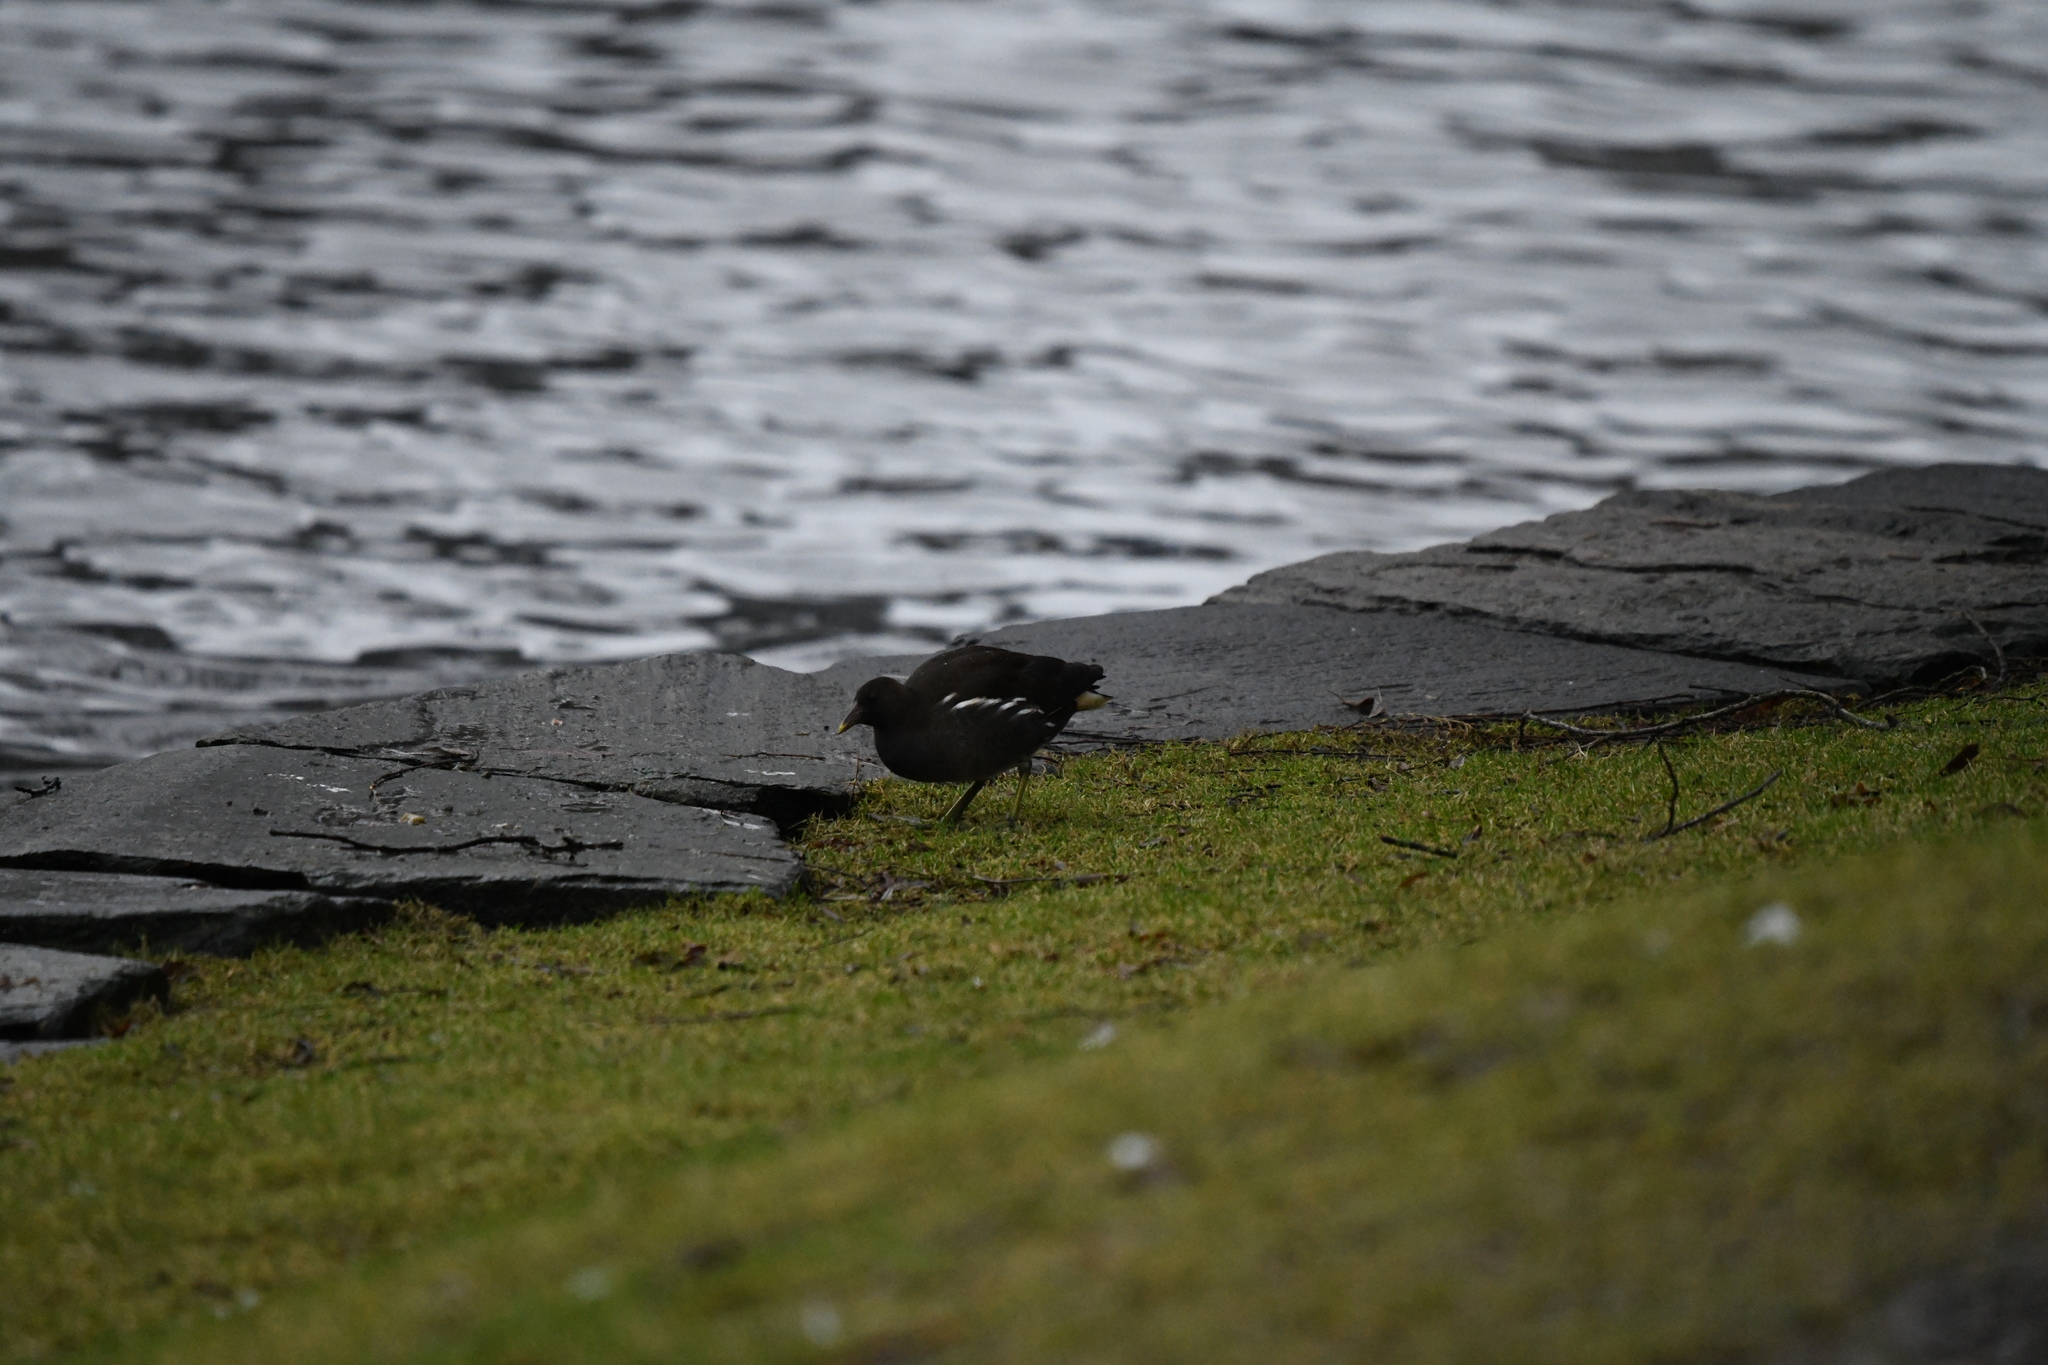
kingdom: Animalia
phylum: Chordata
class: Aves
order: Gruiformes
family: Rallidae
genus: Gallinula
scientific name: Gallinula chloropus
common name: Common moorhen
